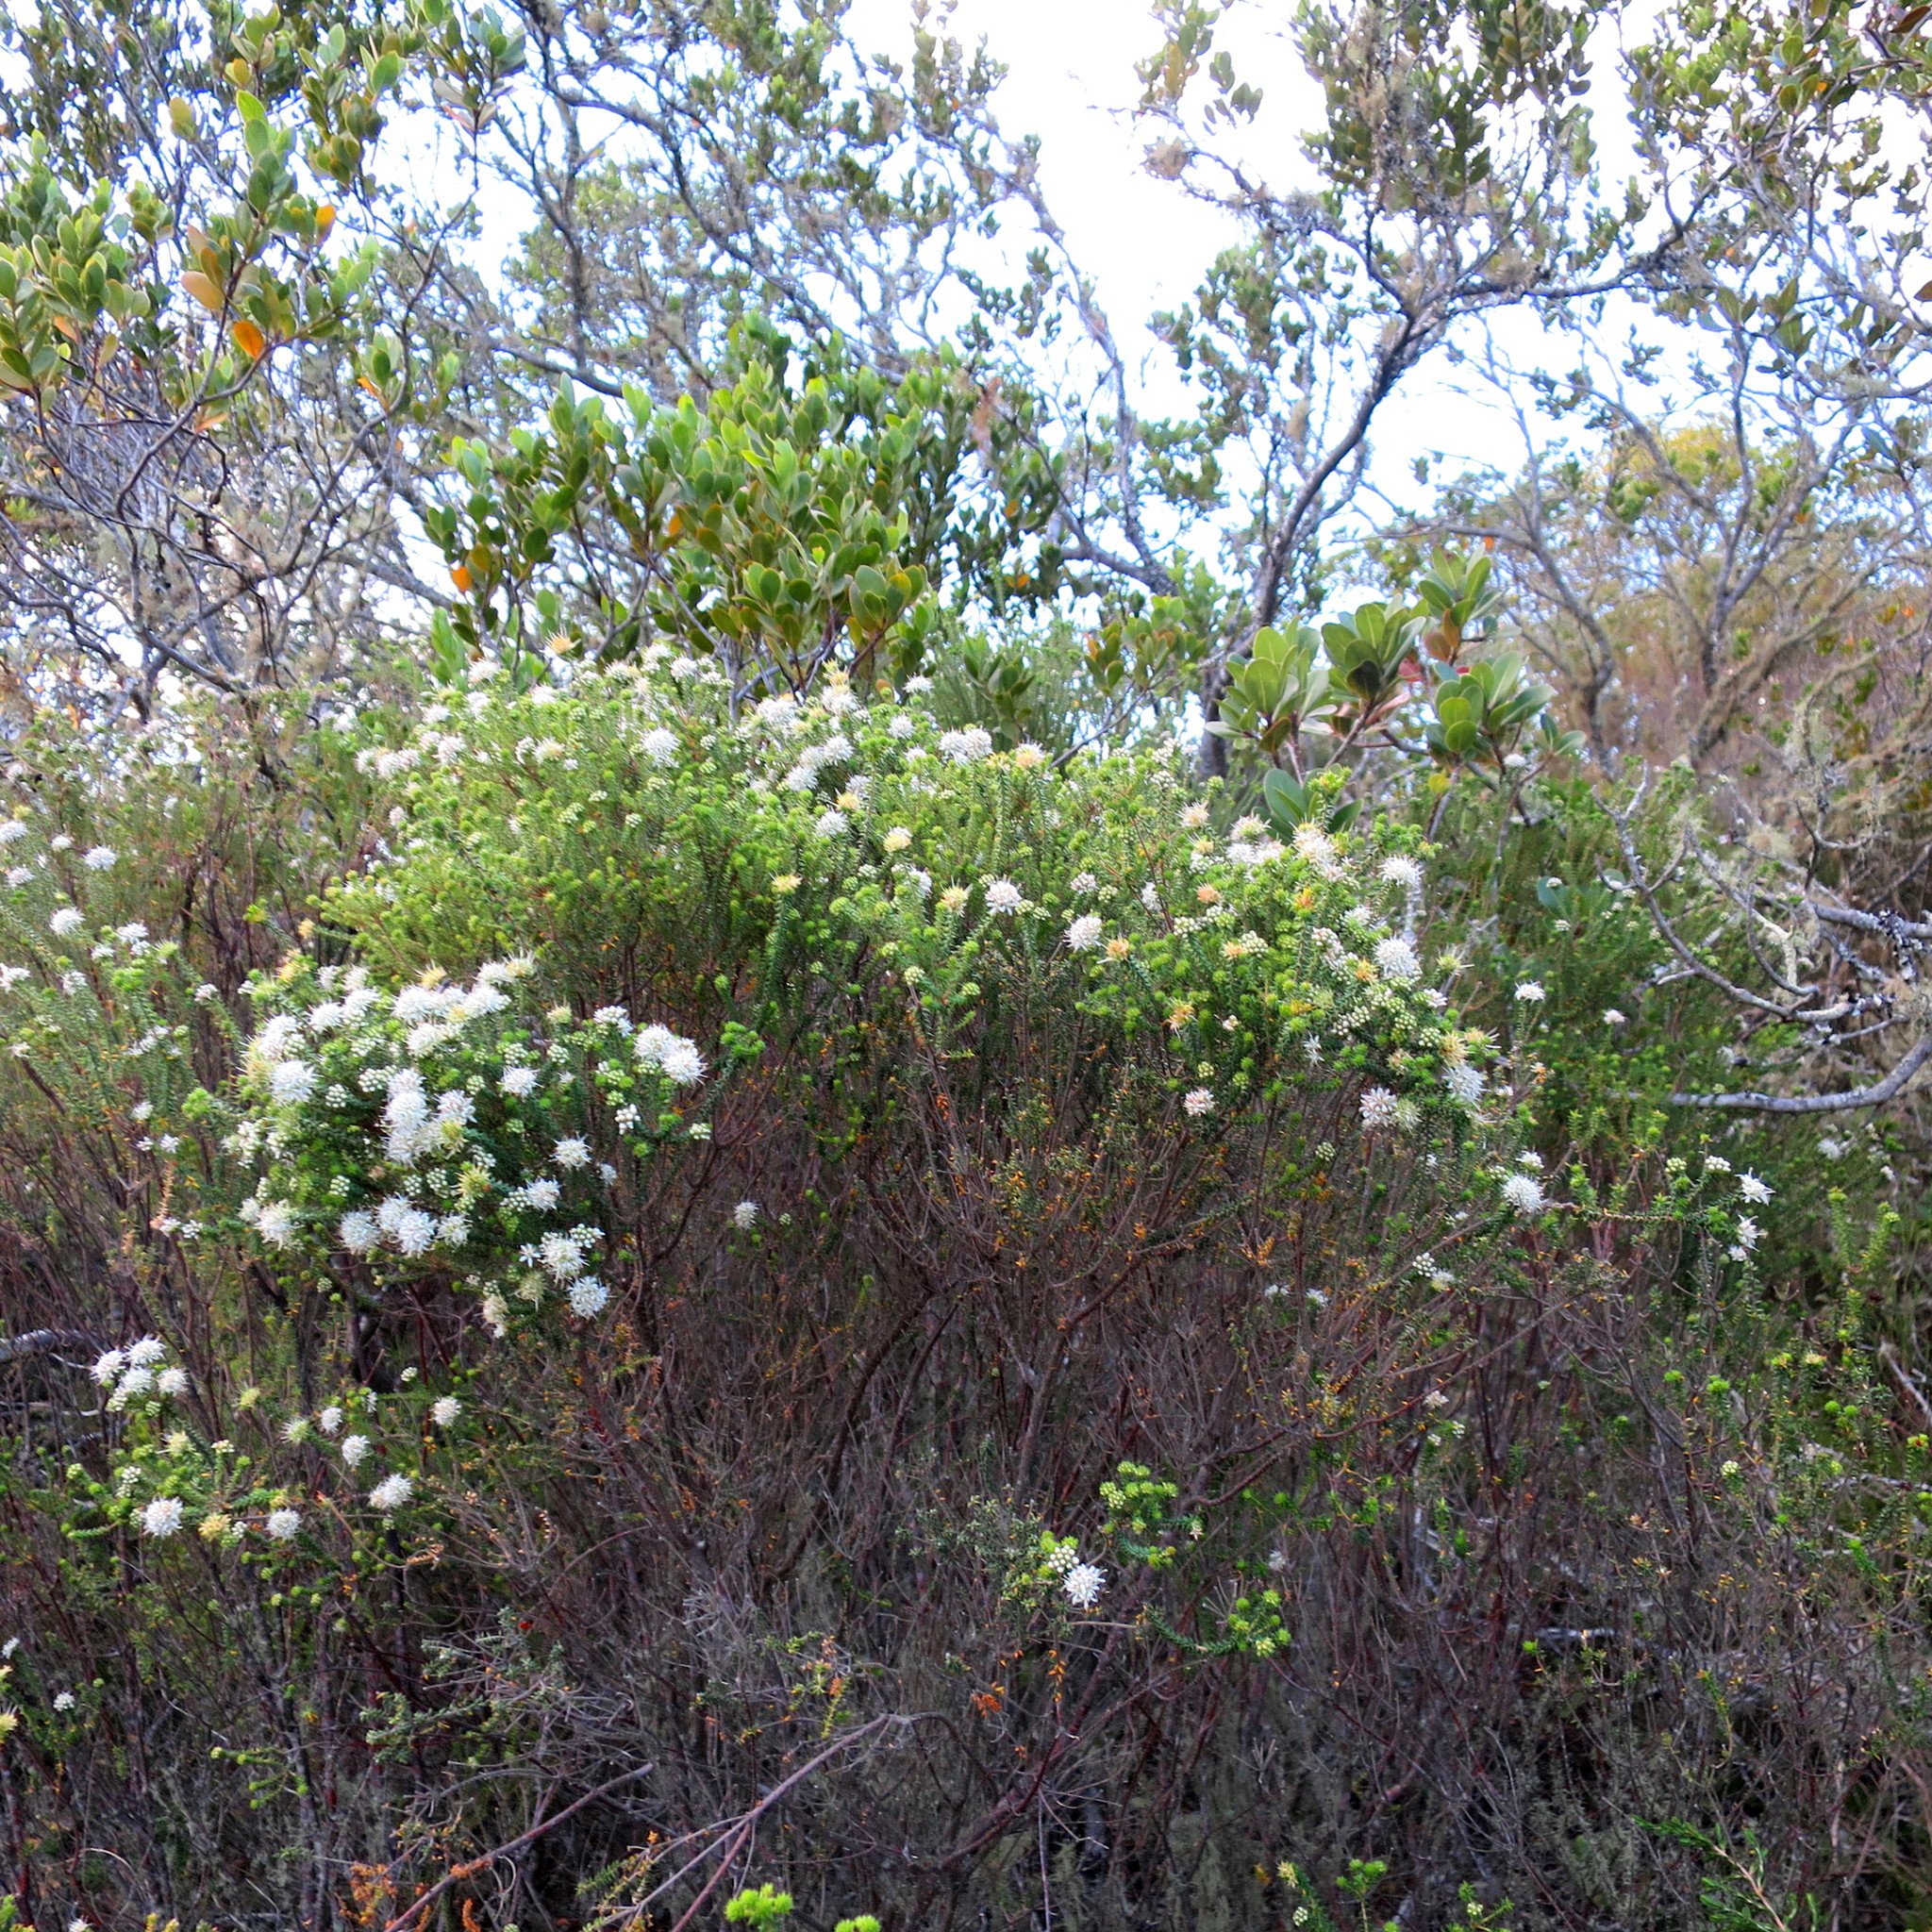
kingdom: Plantae
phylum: Tracheophyta
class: Magnoliopsida
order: Sapindales
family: Rutaceae
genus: Agathosma
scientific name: Agathosma apiculata
